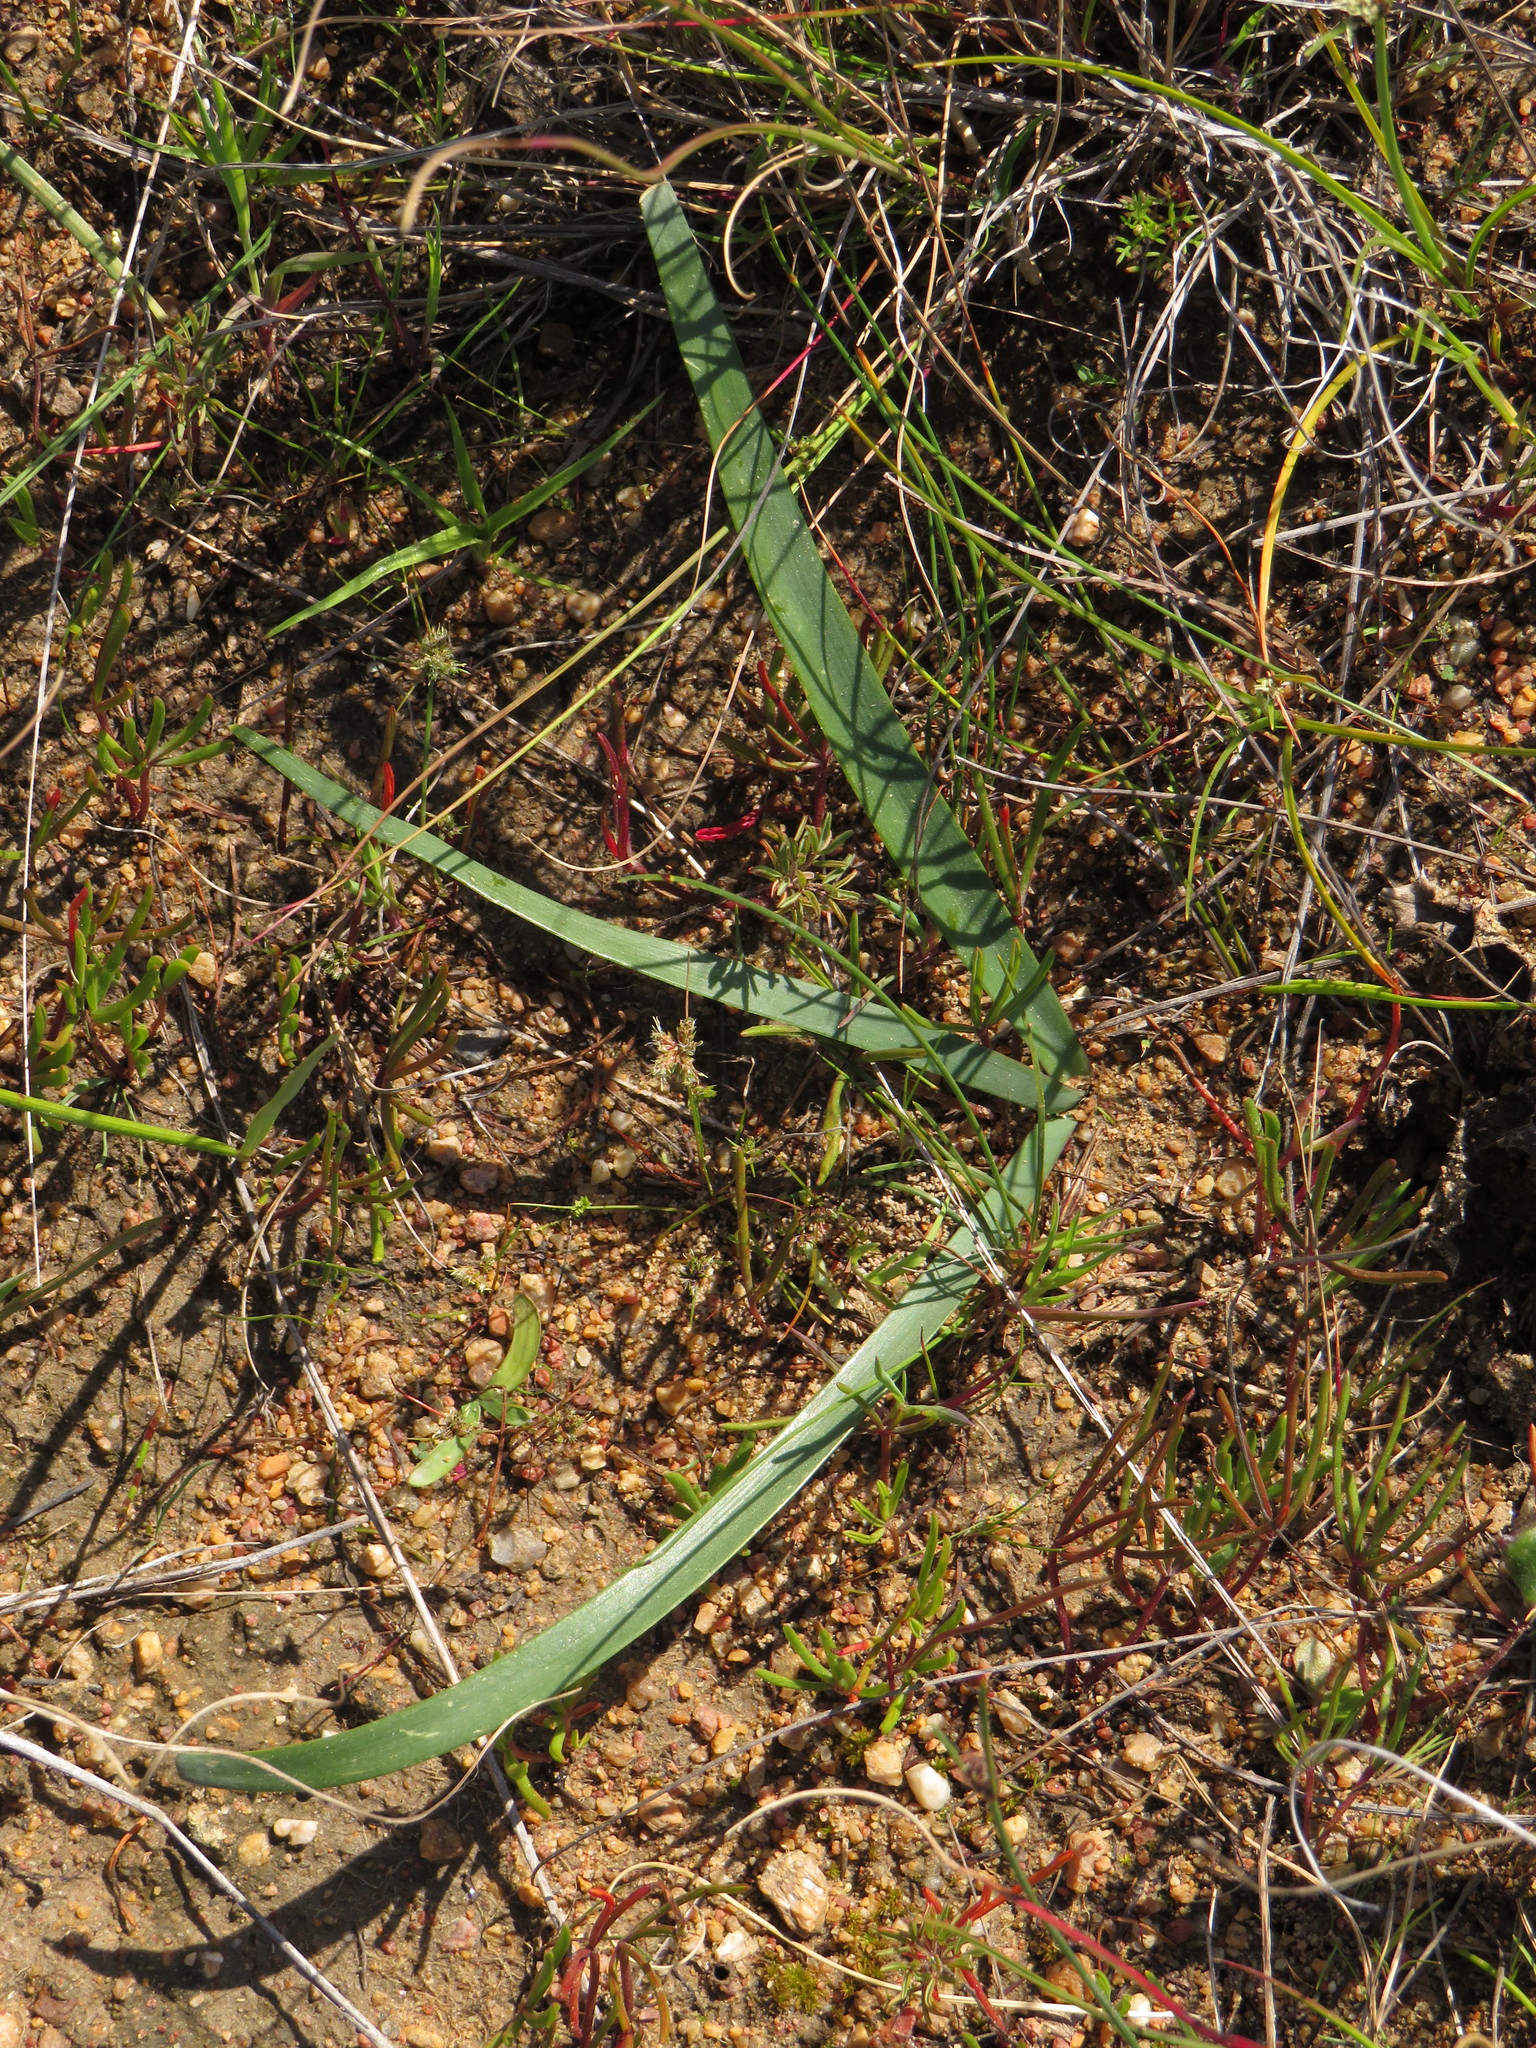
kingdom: Plantae
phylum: Tracheophyta
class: Liliopsida
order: Asparagales
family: Amaryllidaceae
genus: Ammocharis
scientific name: Ammocharis longifolia
